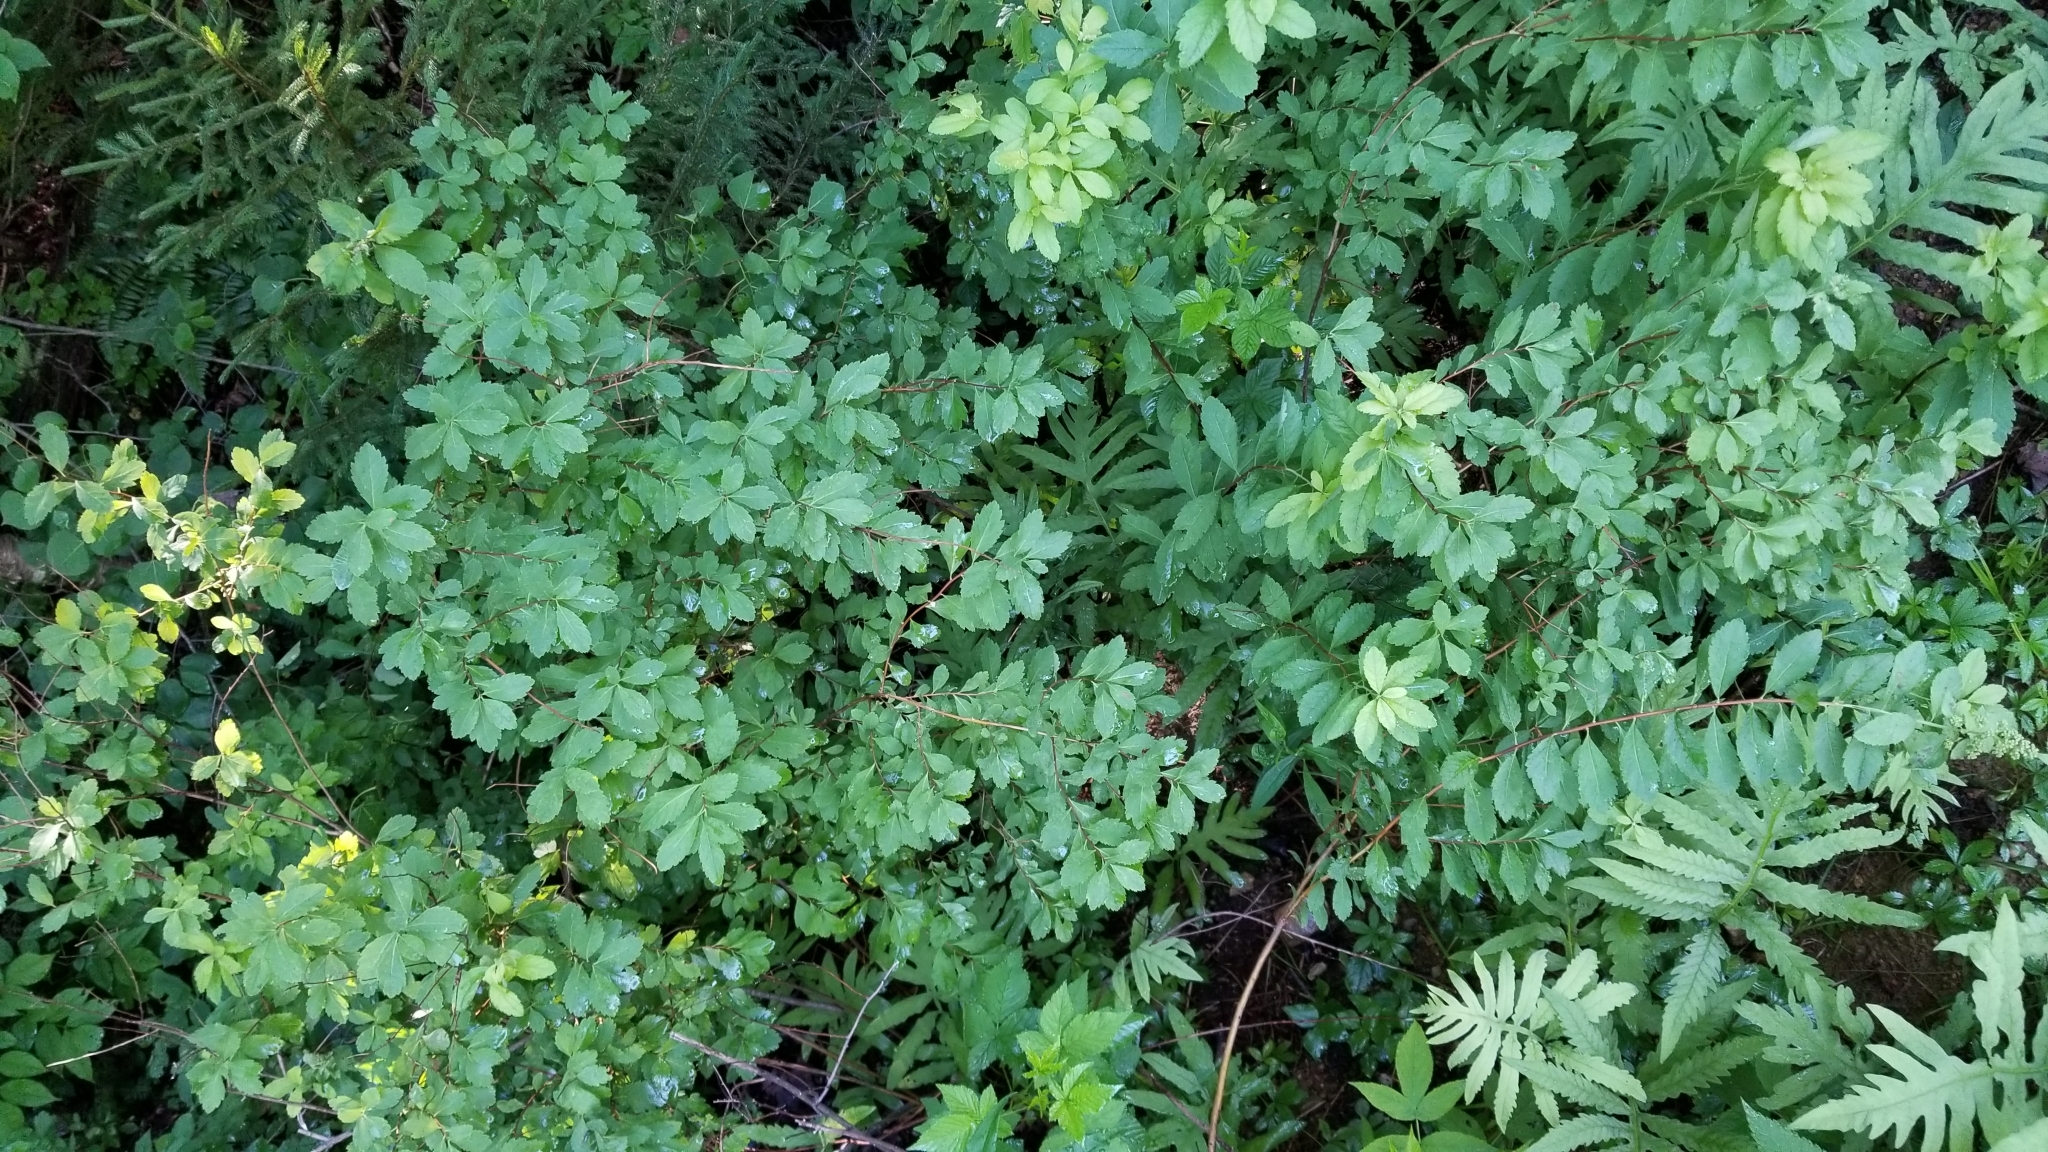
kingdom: Plantae
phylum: Tracheophyta
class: Magnoliopsida
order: Rosales
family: Rosaceae
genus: Spiraea
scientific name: Spiraea alba
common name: Pale bridewort
